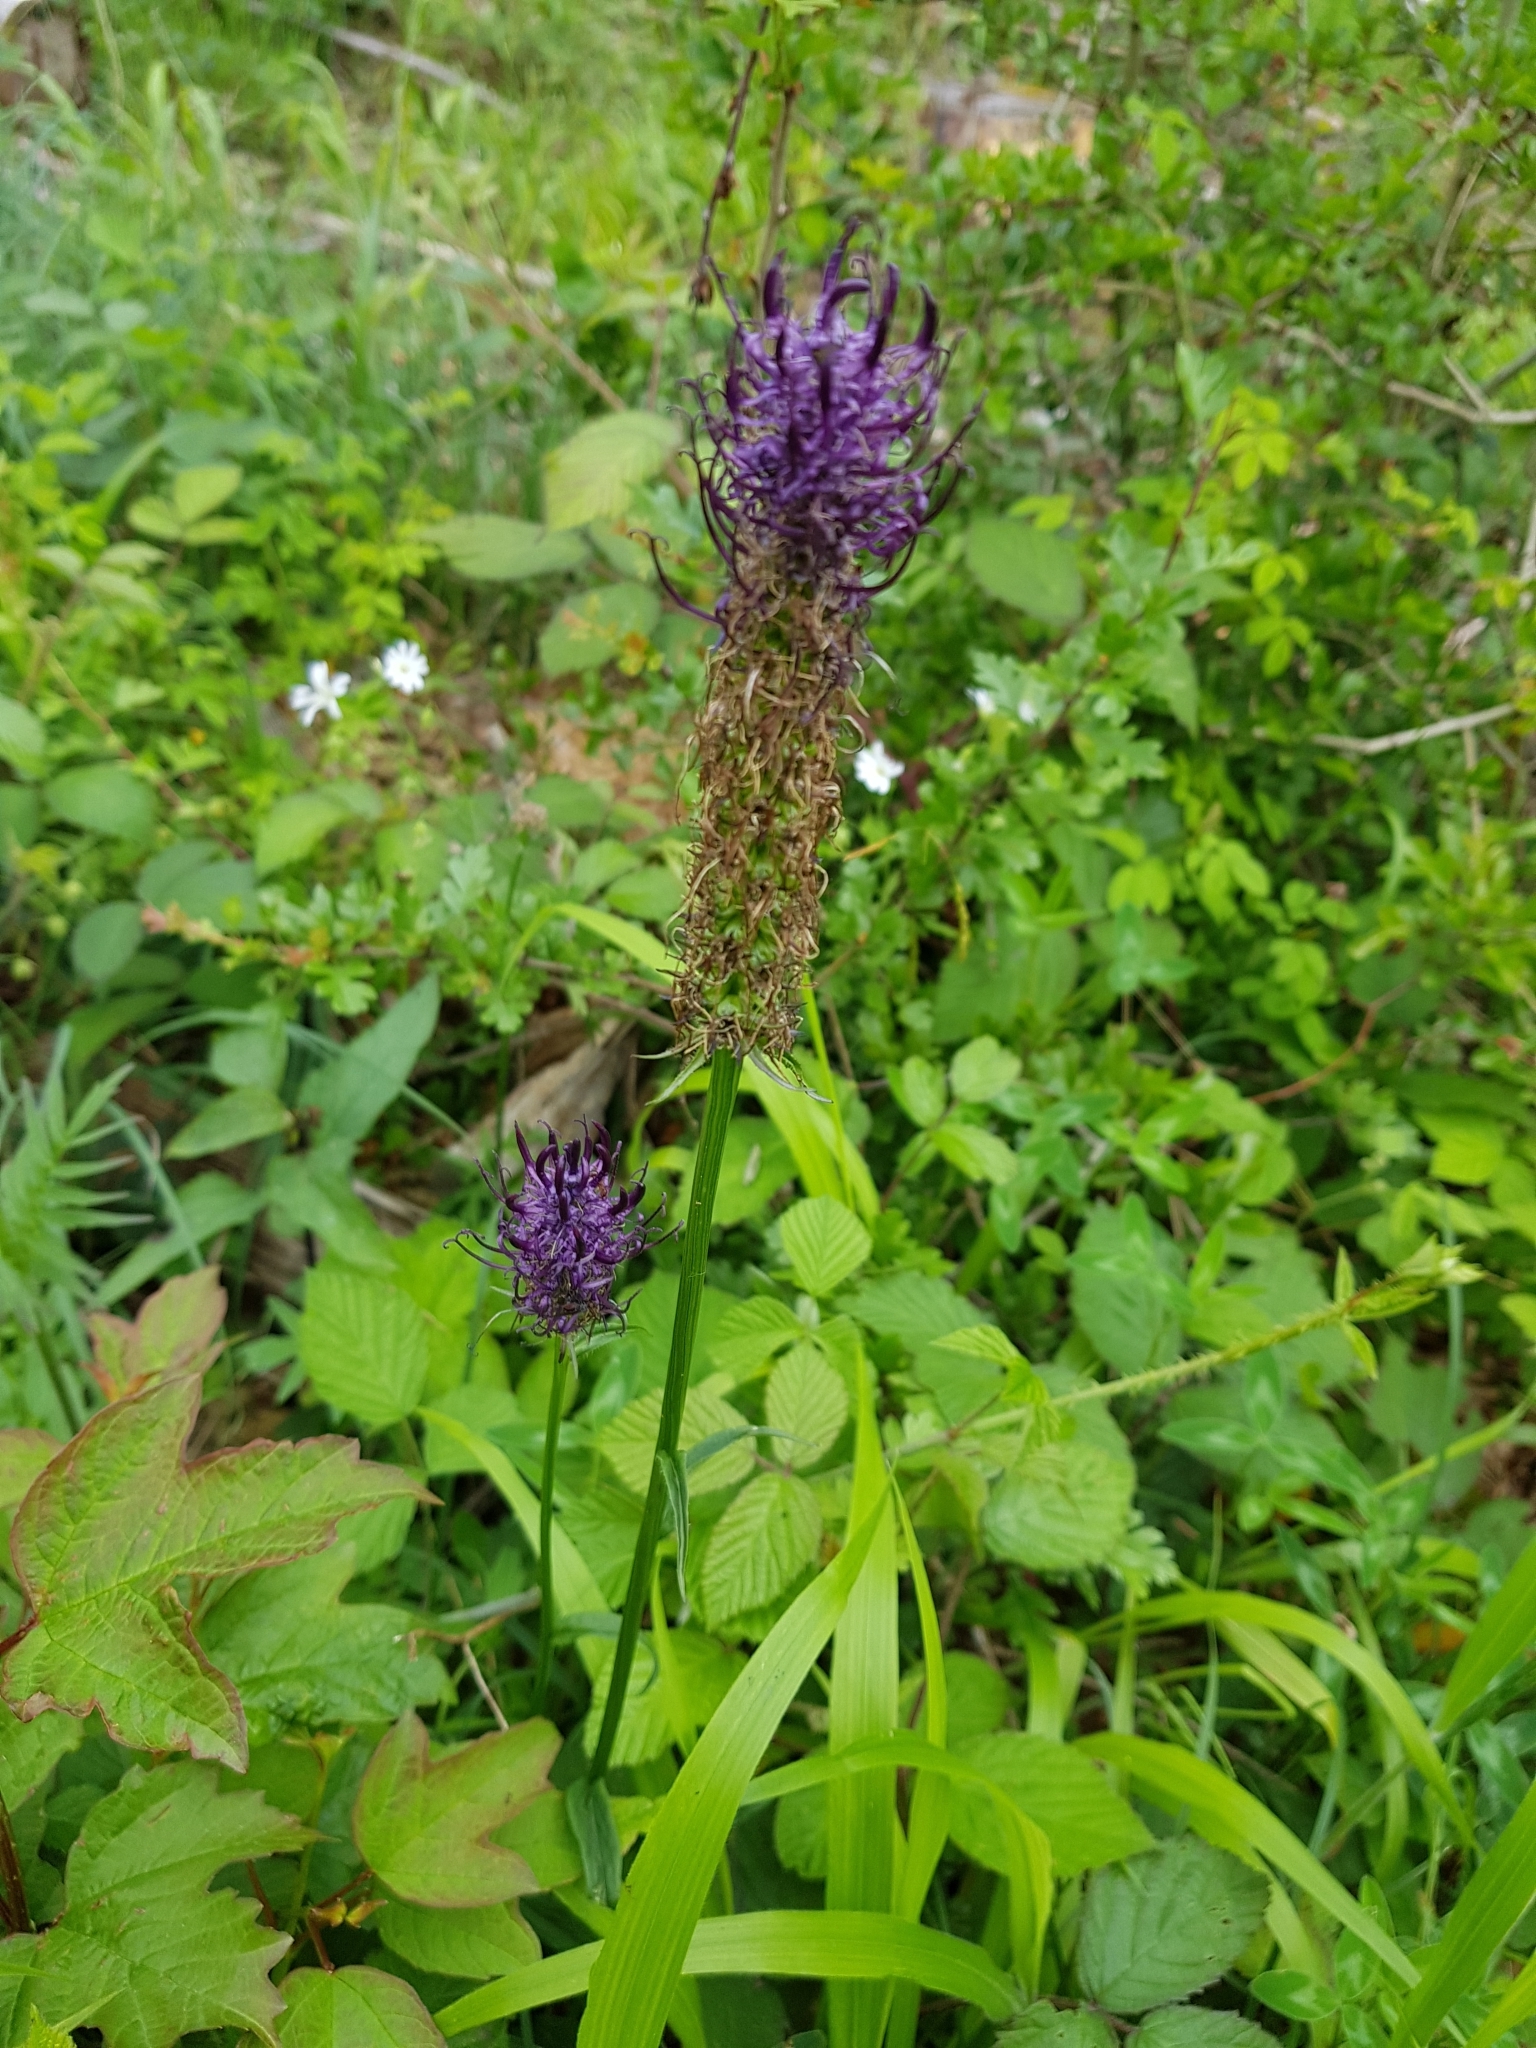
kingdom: Plantae
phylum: Tracheophyta
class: Magnoliopsida
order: Asterales
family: Campanulaceae
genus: Phyteuma
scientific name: Phyteuma nigrum
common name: Black rampion
